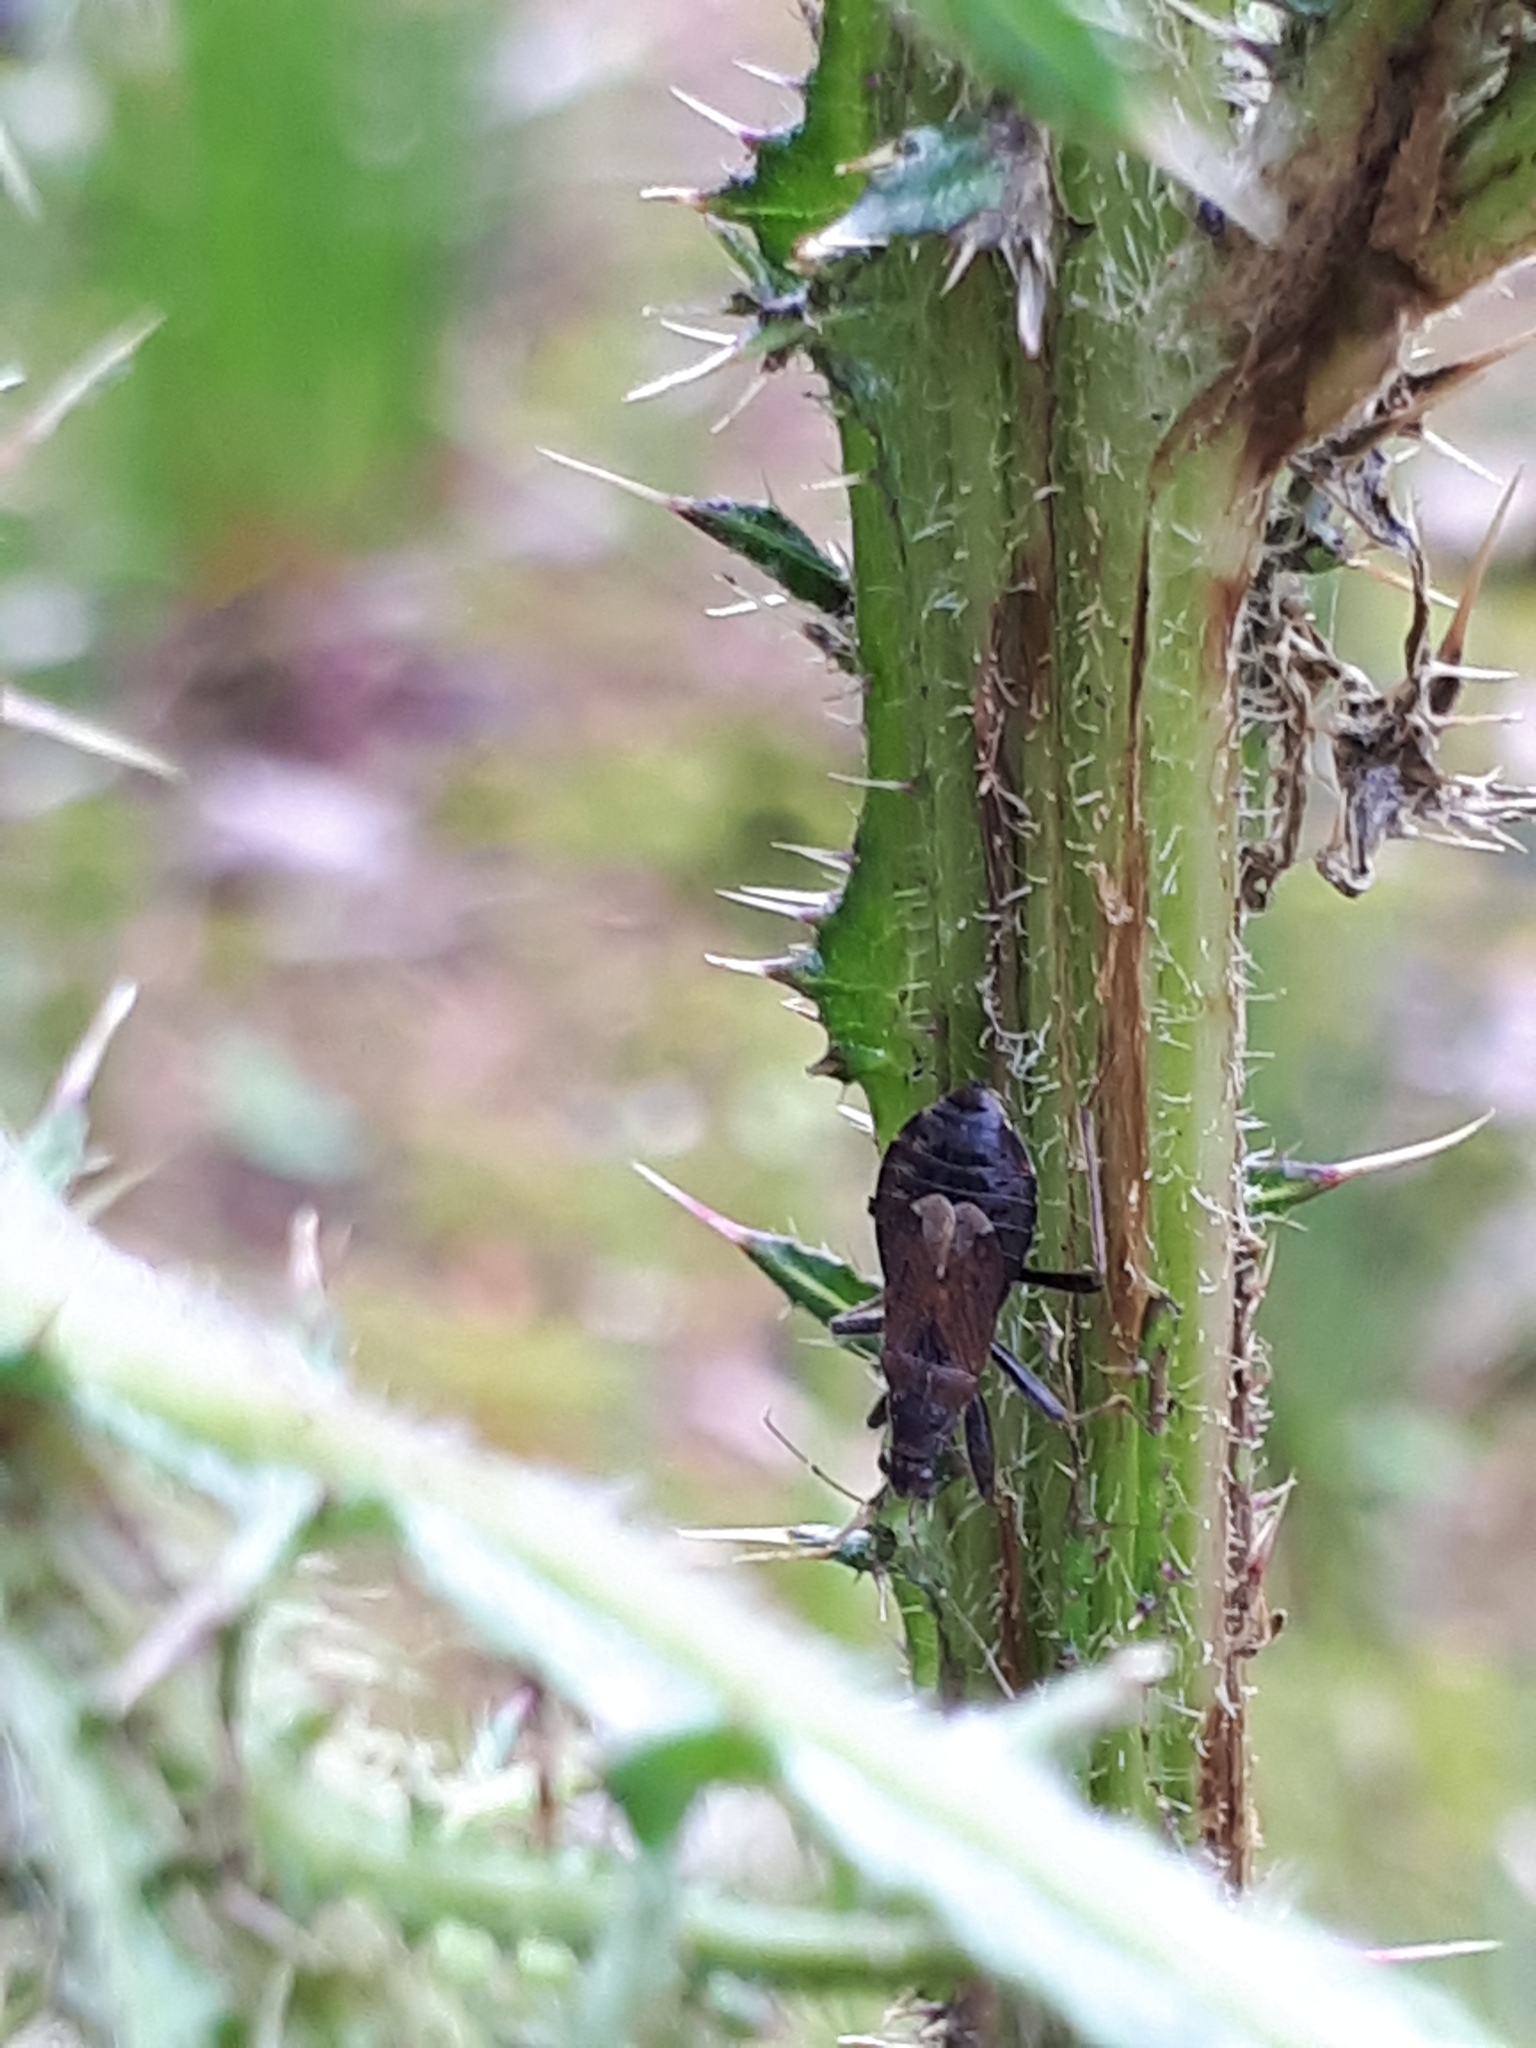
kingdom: Animalia
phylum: Arthropoda
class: Insecta
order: Hemiptera
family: Nabidae
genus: Himacerus
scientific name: Himacerus mirmicoides
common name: Ant damsel bug
